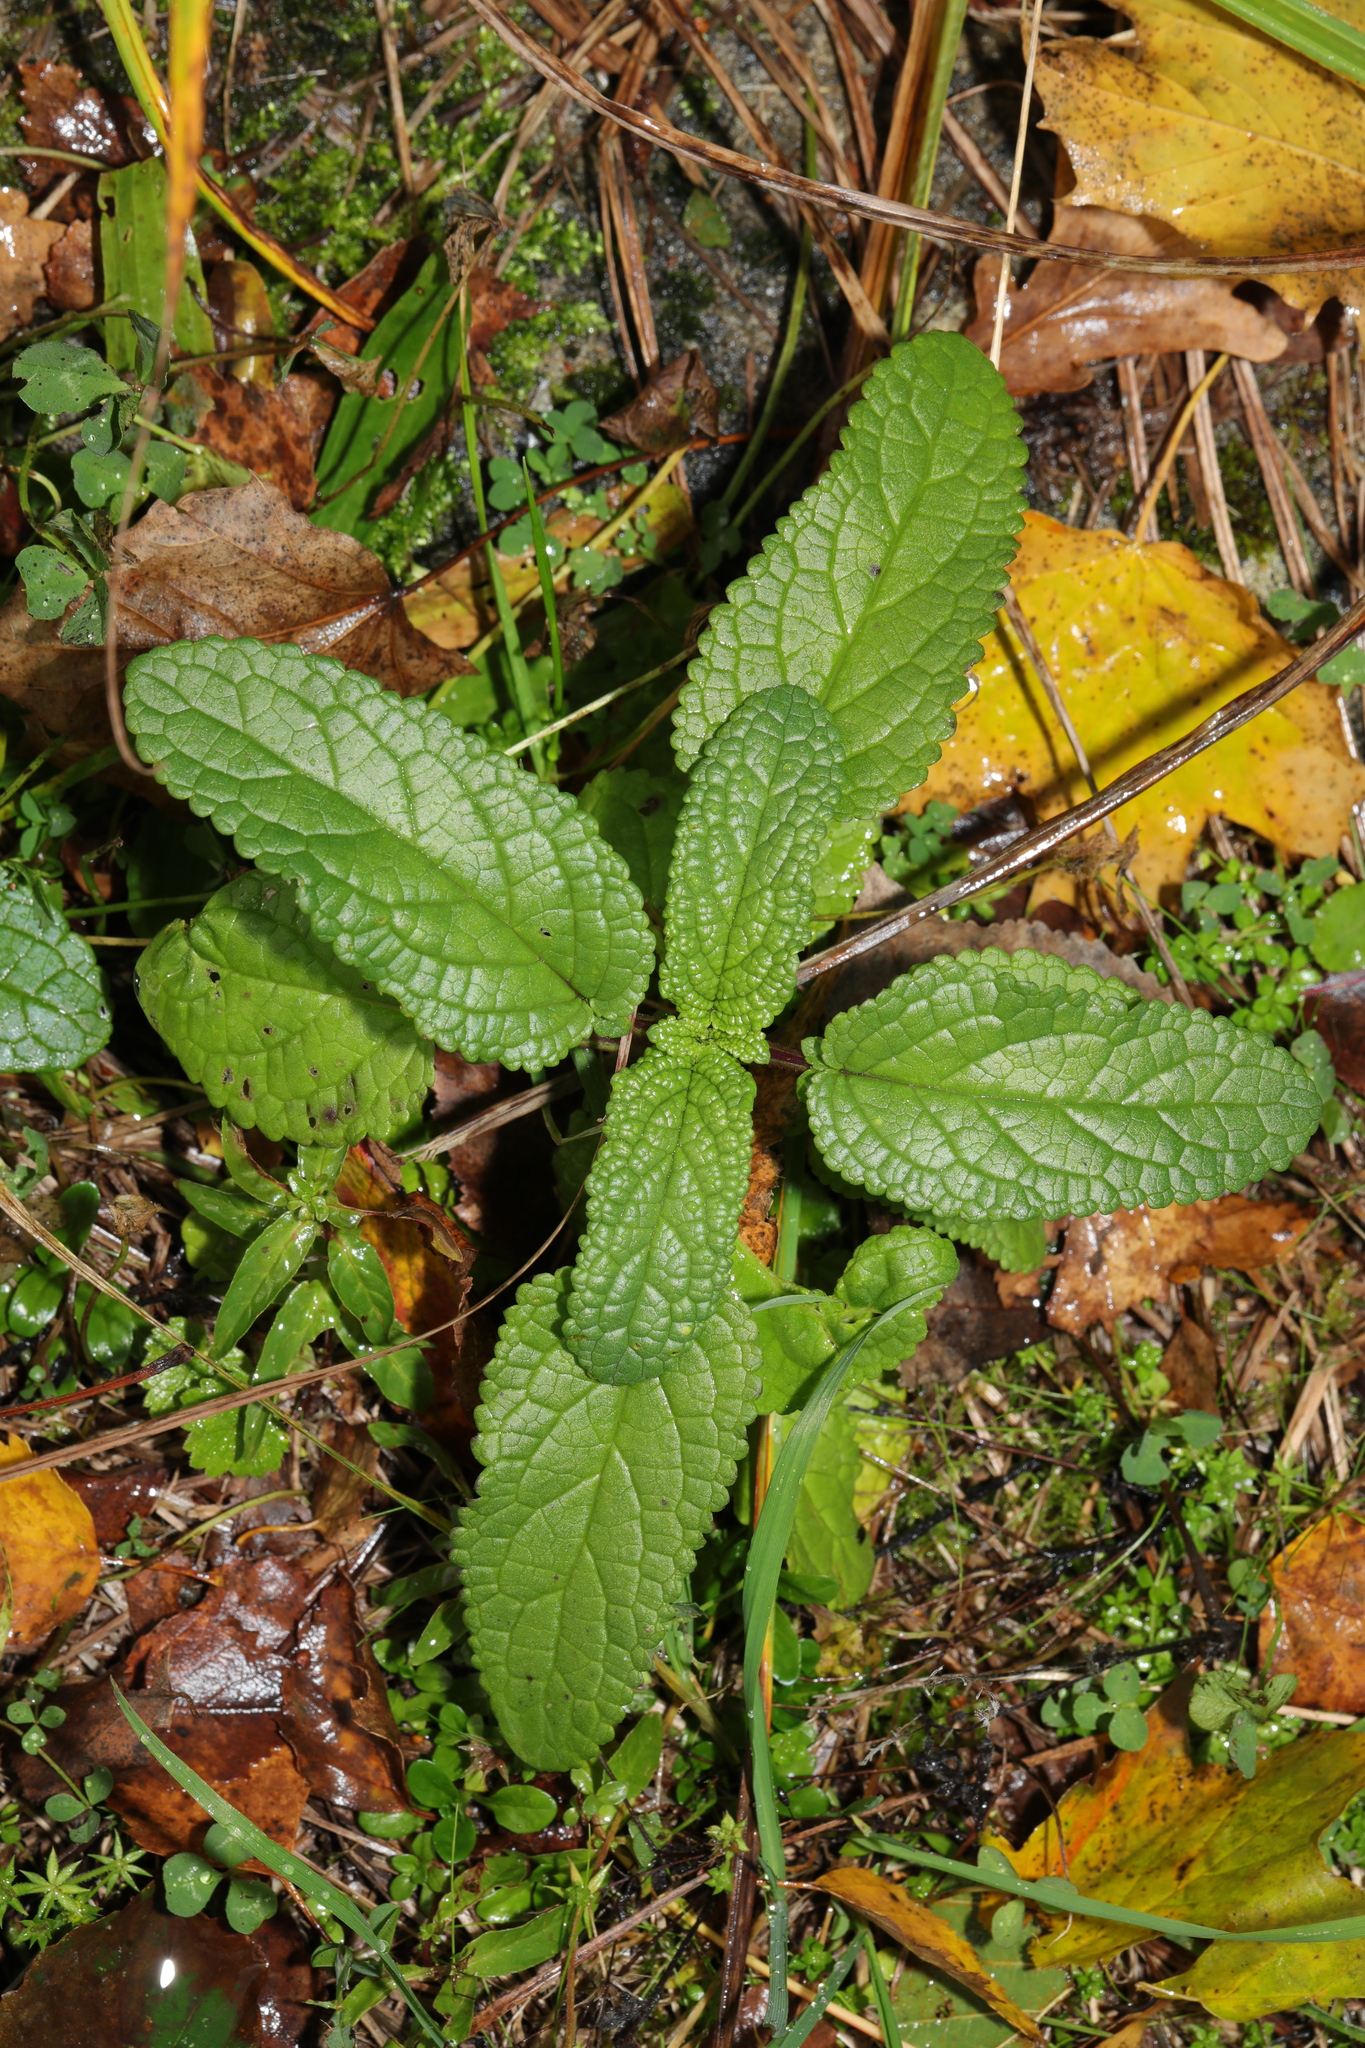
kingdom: Plantae
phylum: Tracheophyta
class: Magnoliopsida
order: Lamiales
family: Scrophulariaceae
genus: Scrophularia
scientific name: Scrophularia auriculata
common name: Water betony
